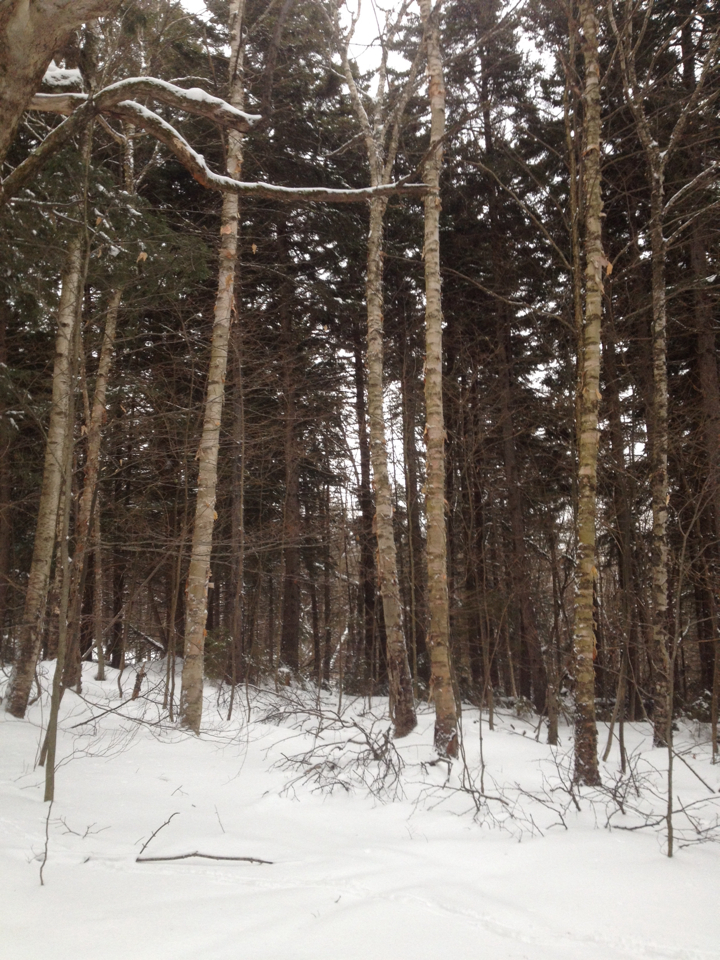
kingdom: Plantae
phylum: Tracheophyta
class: Magnoliopsida
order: Fagales
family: Betulaceae
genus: Betula
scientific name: Betula cordifolia
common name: Mountain white birch
